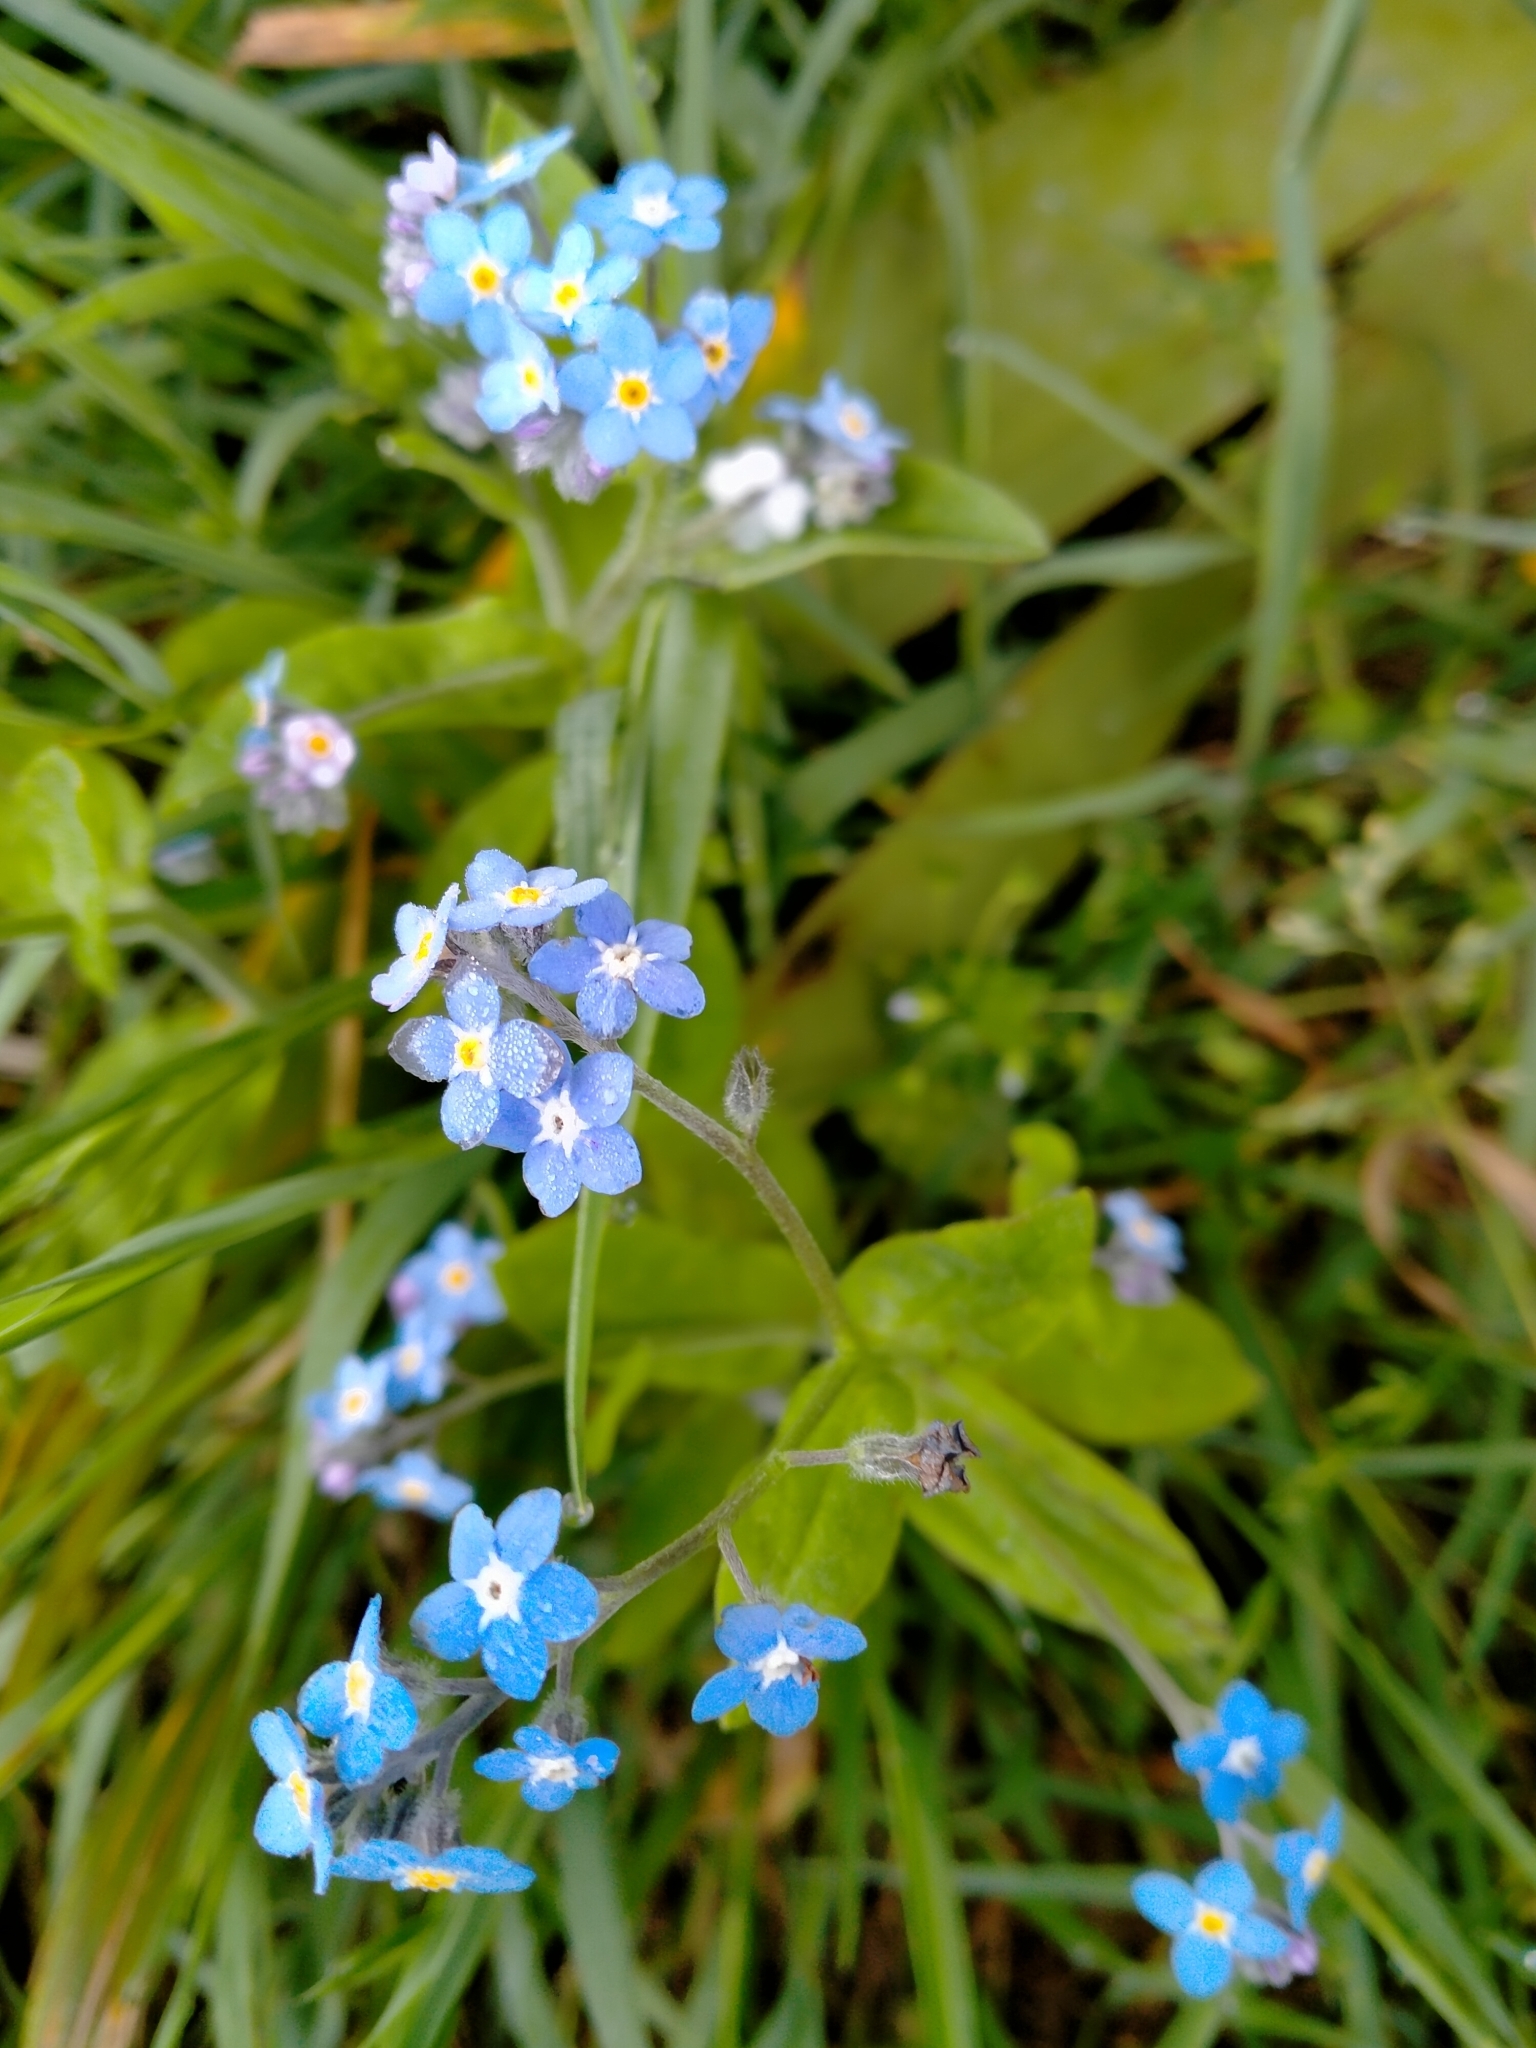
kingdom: Plantae
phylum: Tracheophyta
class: Magnoliopsida
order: Boraginales
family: Boraginaceae
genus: Myosotis
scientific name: Myosotis sylvatica
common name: Wood forget-me-not
